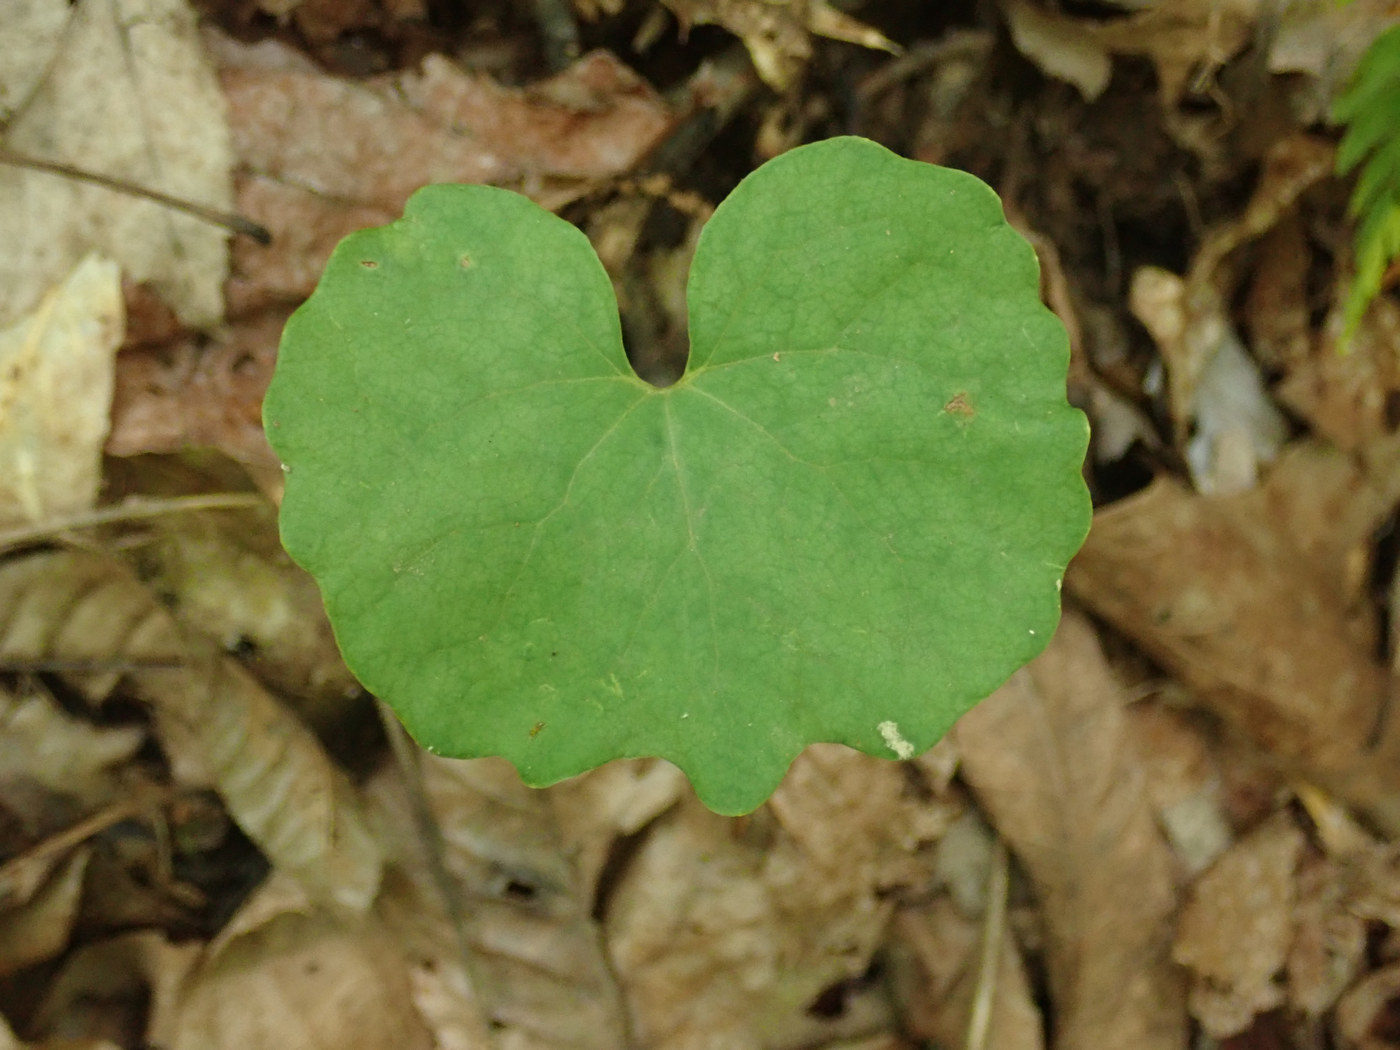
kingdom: Plantae
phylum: Tracheophyta
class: Magnoliopsida
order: Ranunculales
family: Papaveraceae
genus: Sanguinaria
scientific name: Sanguinaria canadensis
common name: Bloodroot
